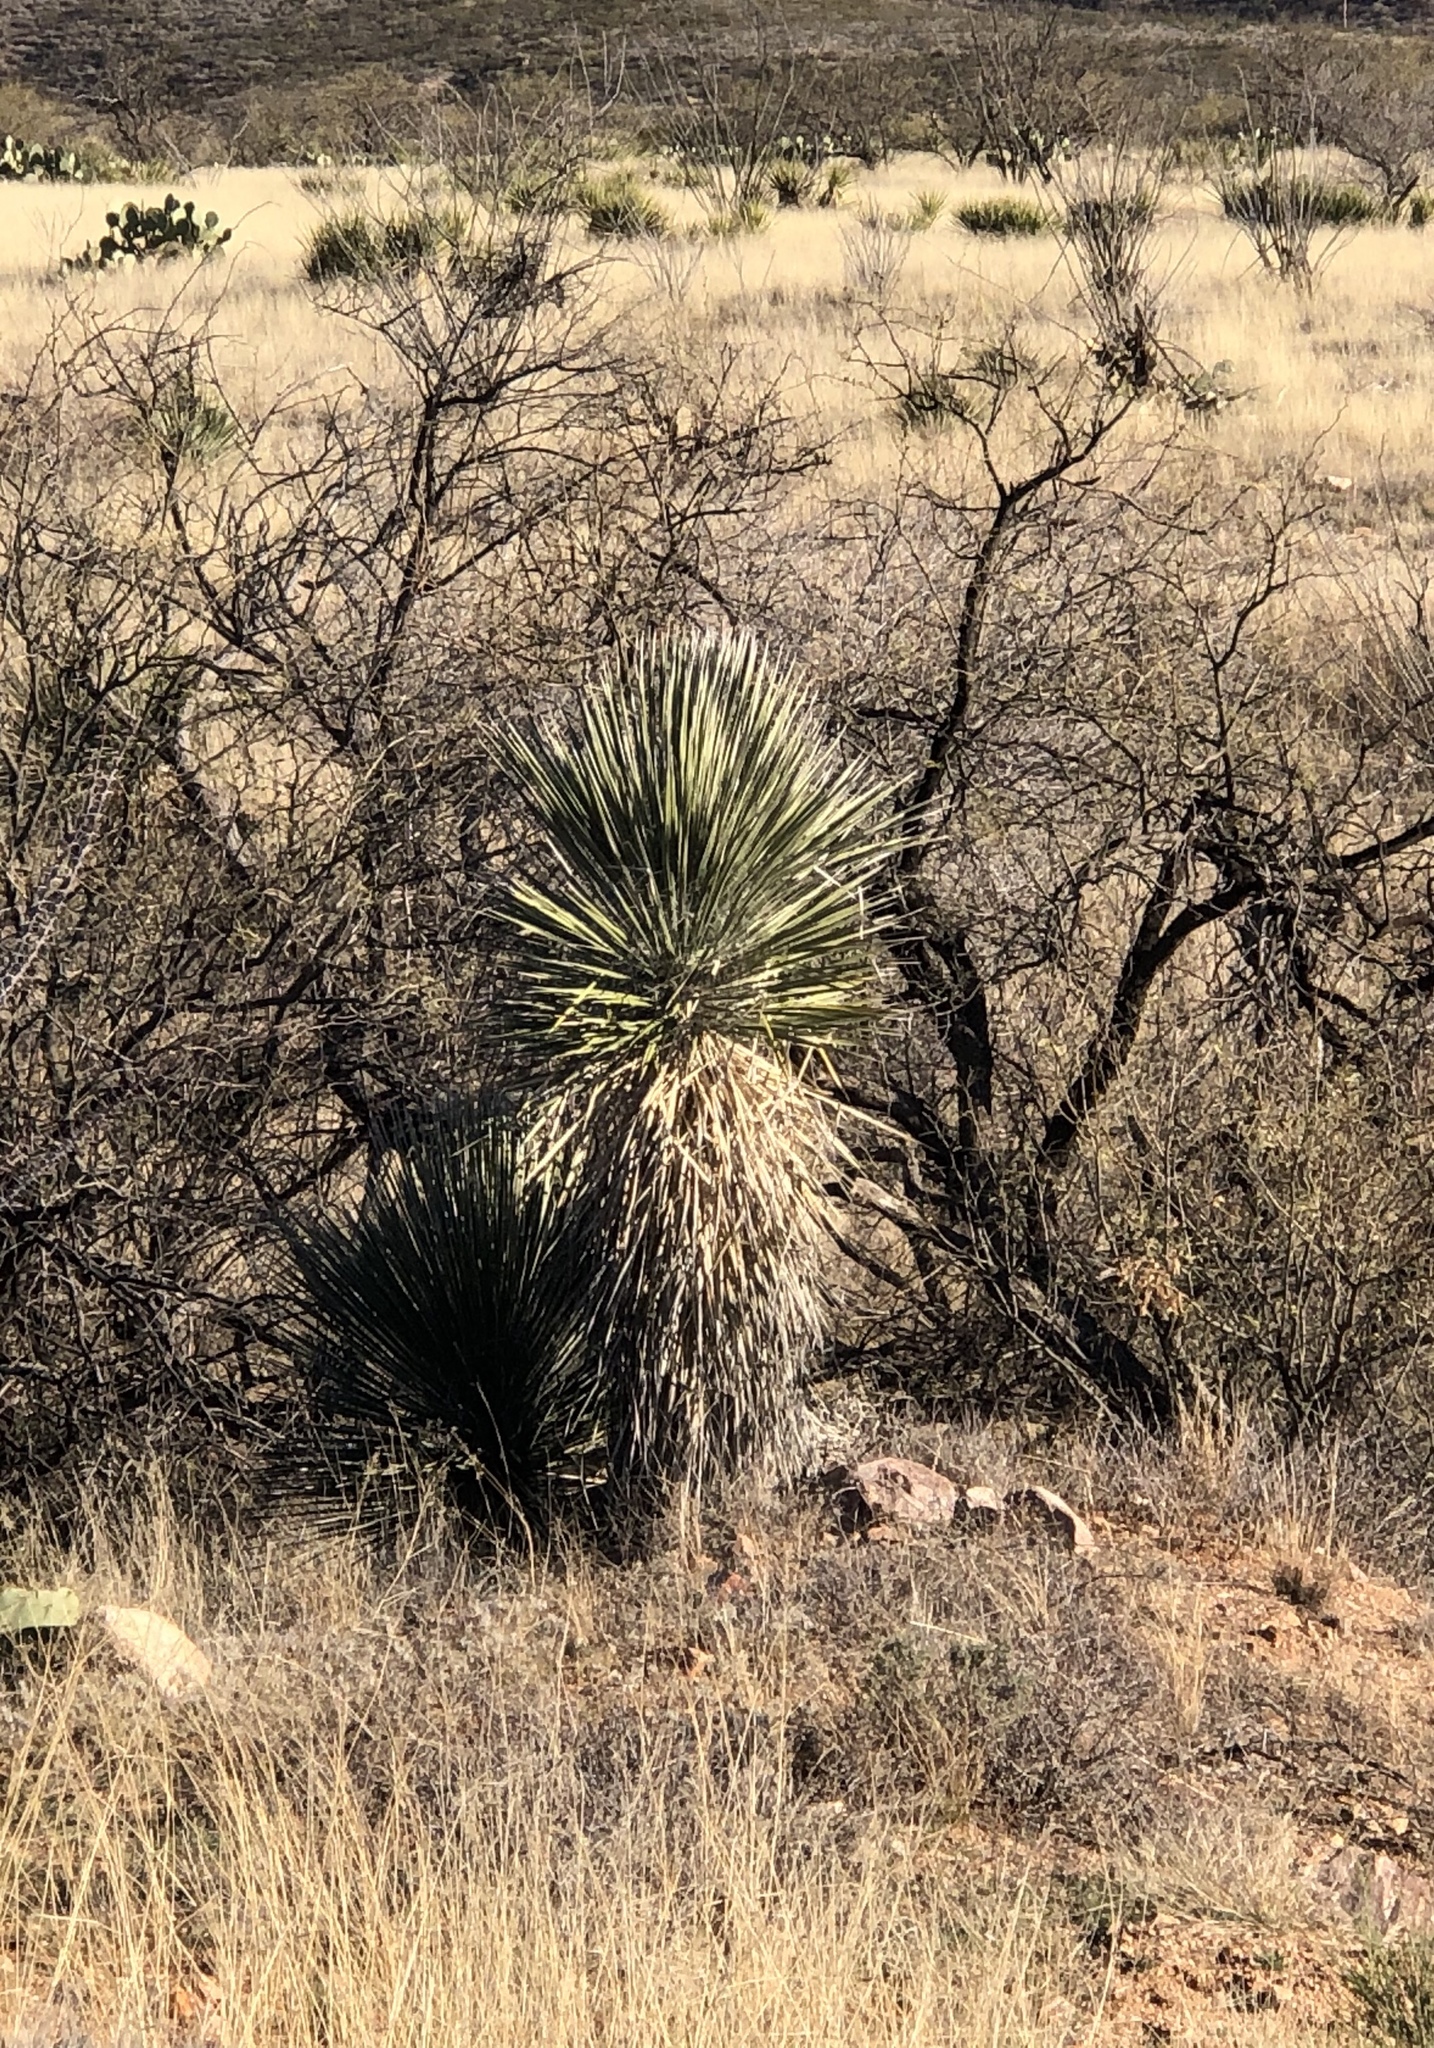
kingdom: Plantae
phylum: Tracheophyta
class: Liliopsida
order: Asparagales
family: Asparagaceae
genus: Yucca
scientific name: Yucca elata
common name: Palmella
